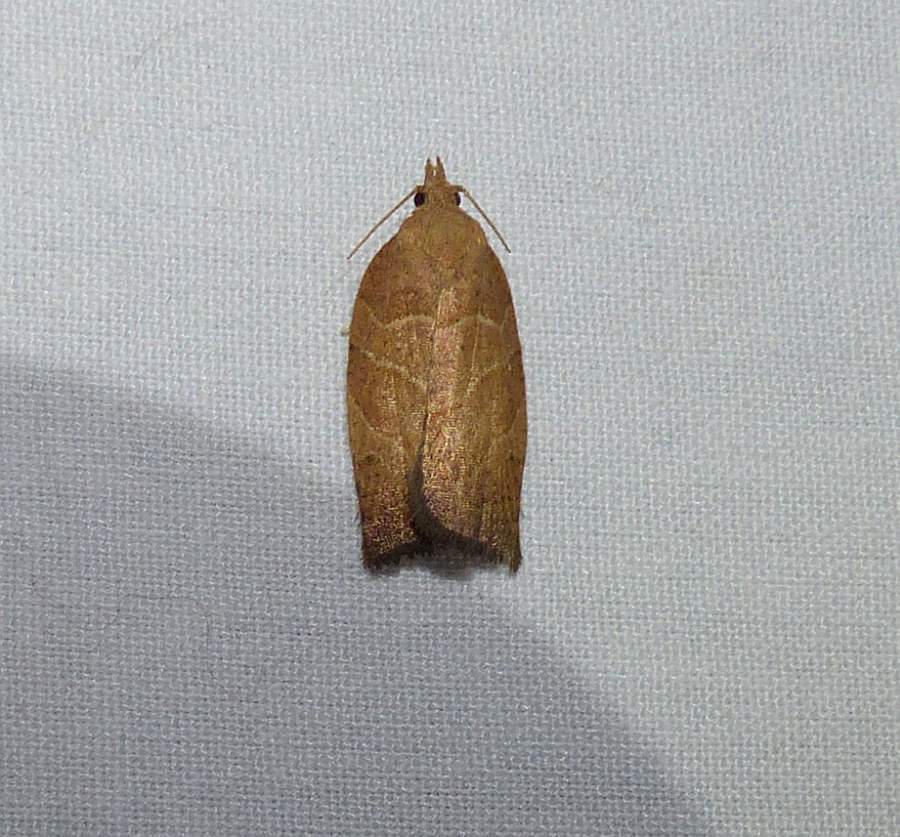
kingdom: Animalia
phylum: Arthropoda
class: Insecta
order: Lepidoptera
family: Tortricidae
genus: Pandemis
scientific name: Pandemis limitata
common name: Three-lined leafroller moth
